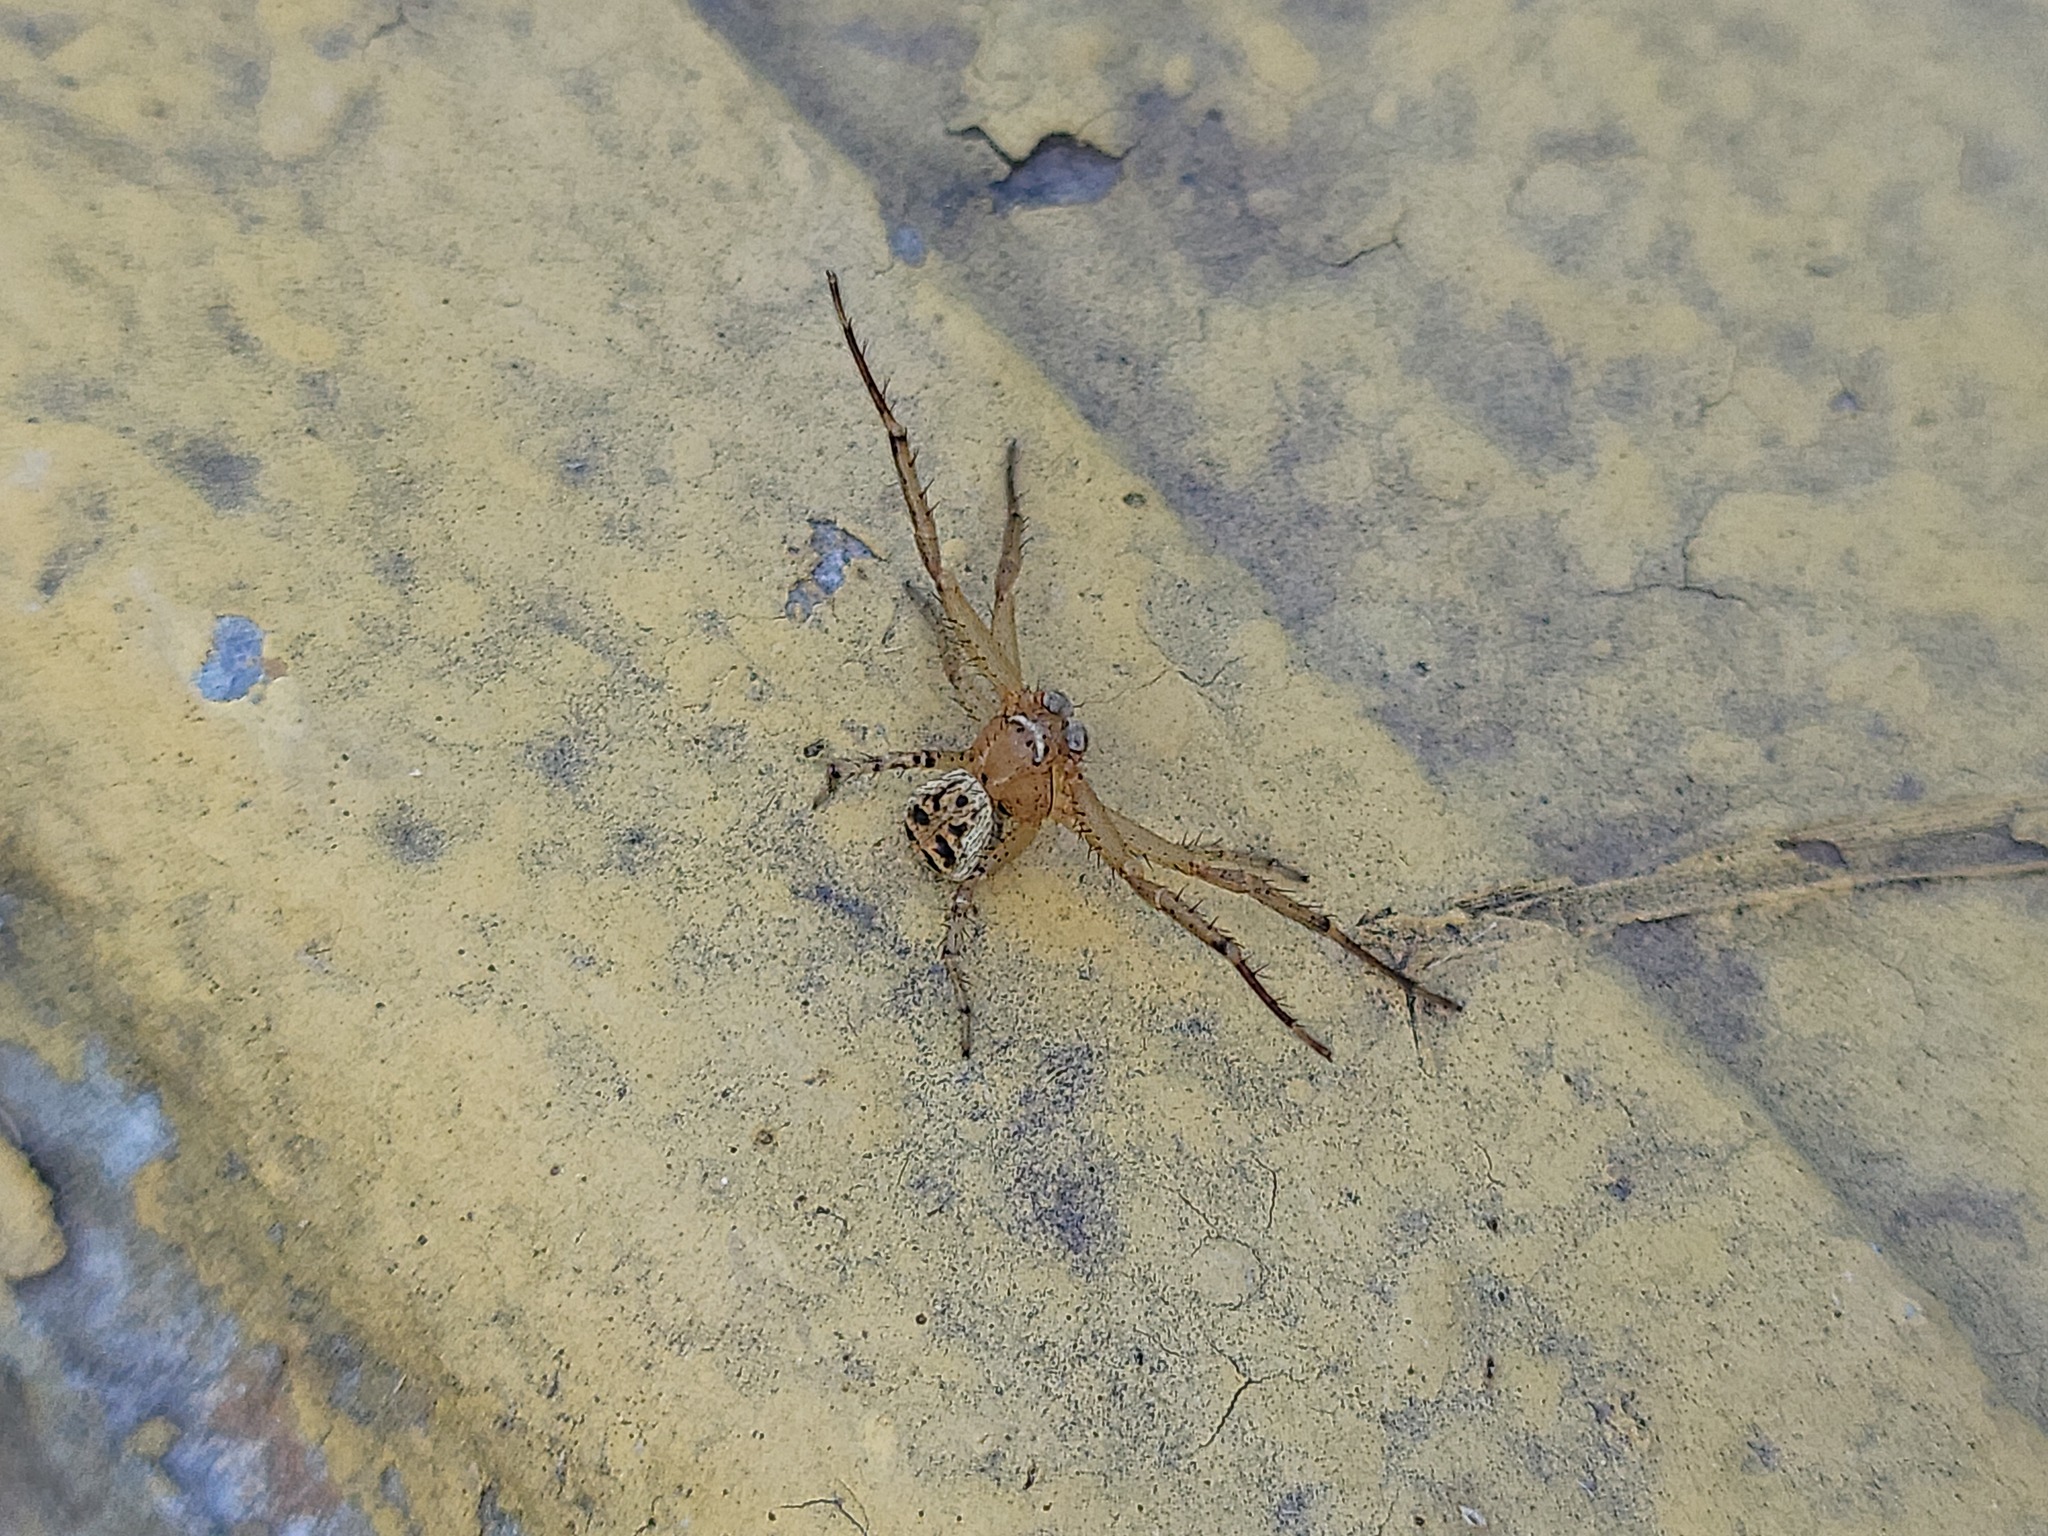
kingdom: Animalia
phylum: Arthropoda
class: Arachnida
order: Araneae
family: Thomisidae
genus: Xysticus
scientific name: Xysticus auctificus
